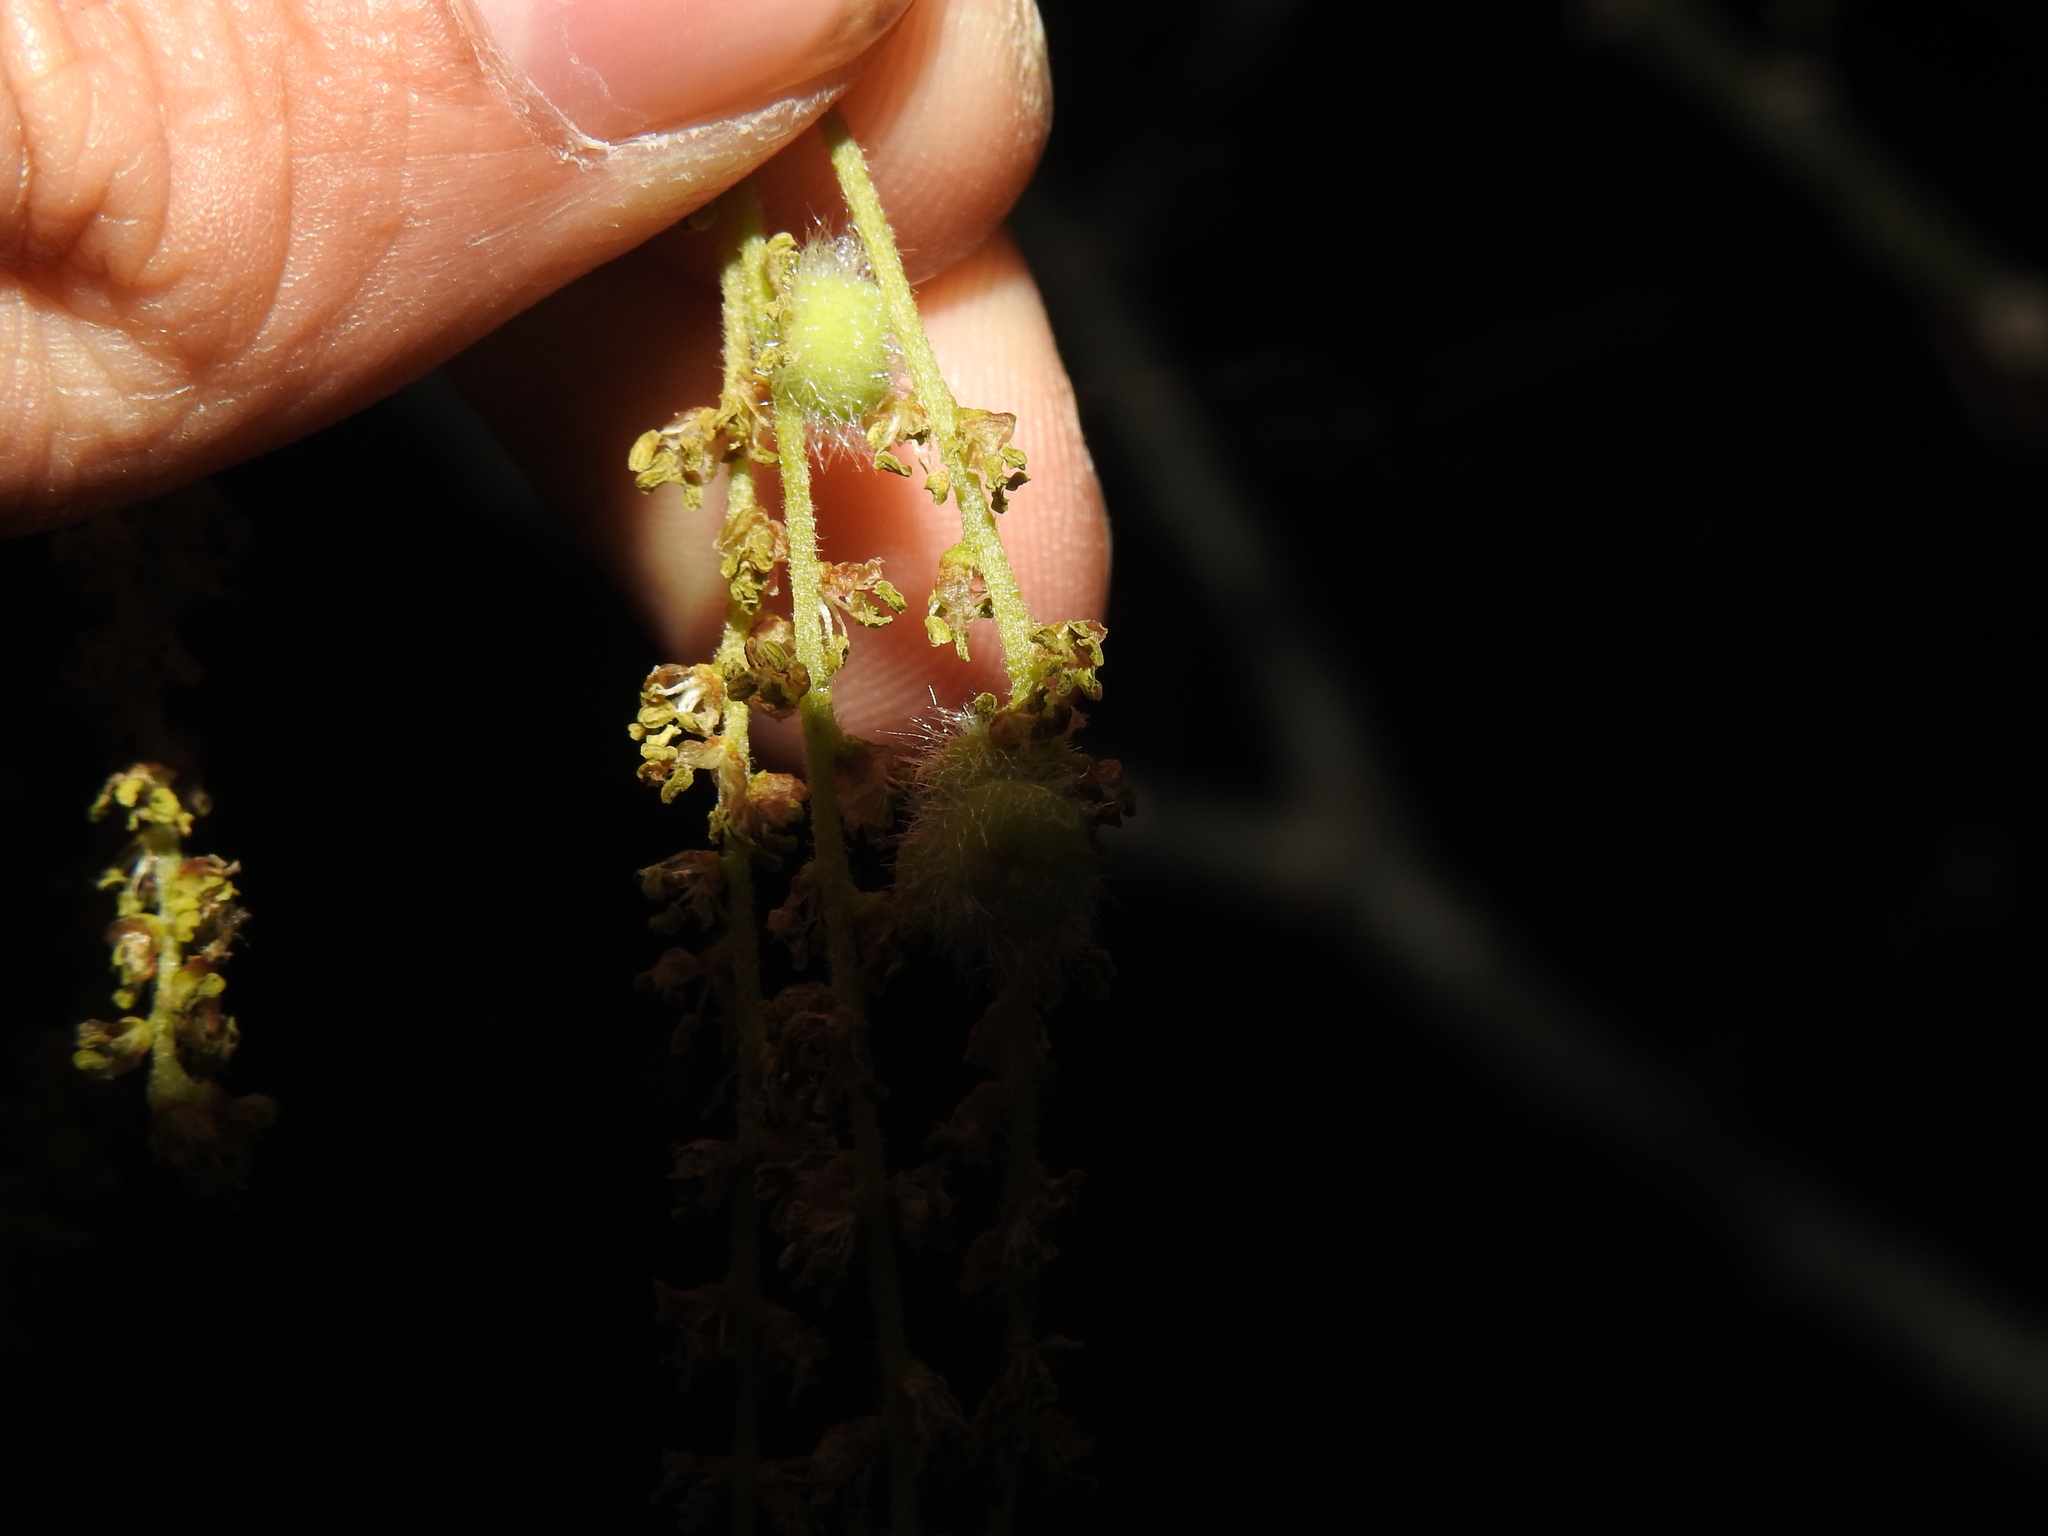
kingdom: Animalia
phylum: Arthropoda
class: Insecta
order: Hymenoptera
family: Cynipidae
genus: Callirhytis
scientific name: Callirhytis
